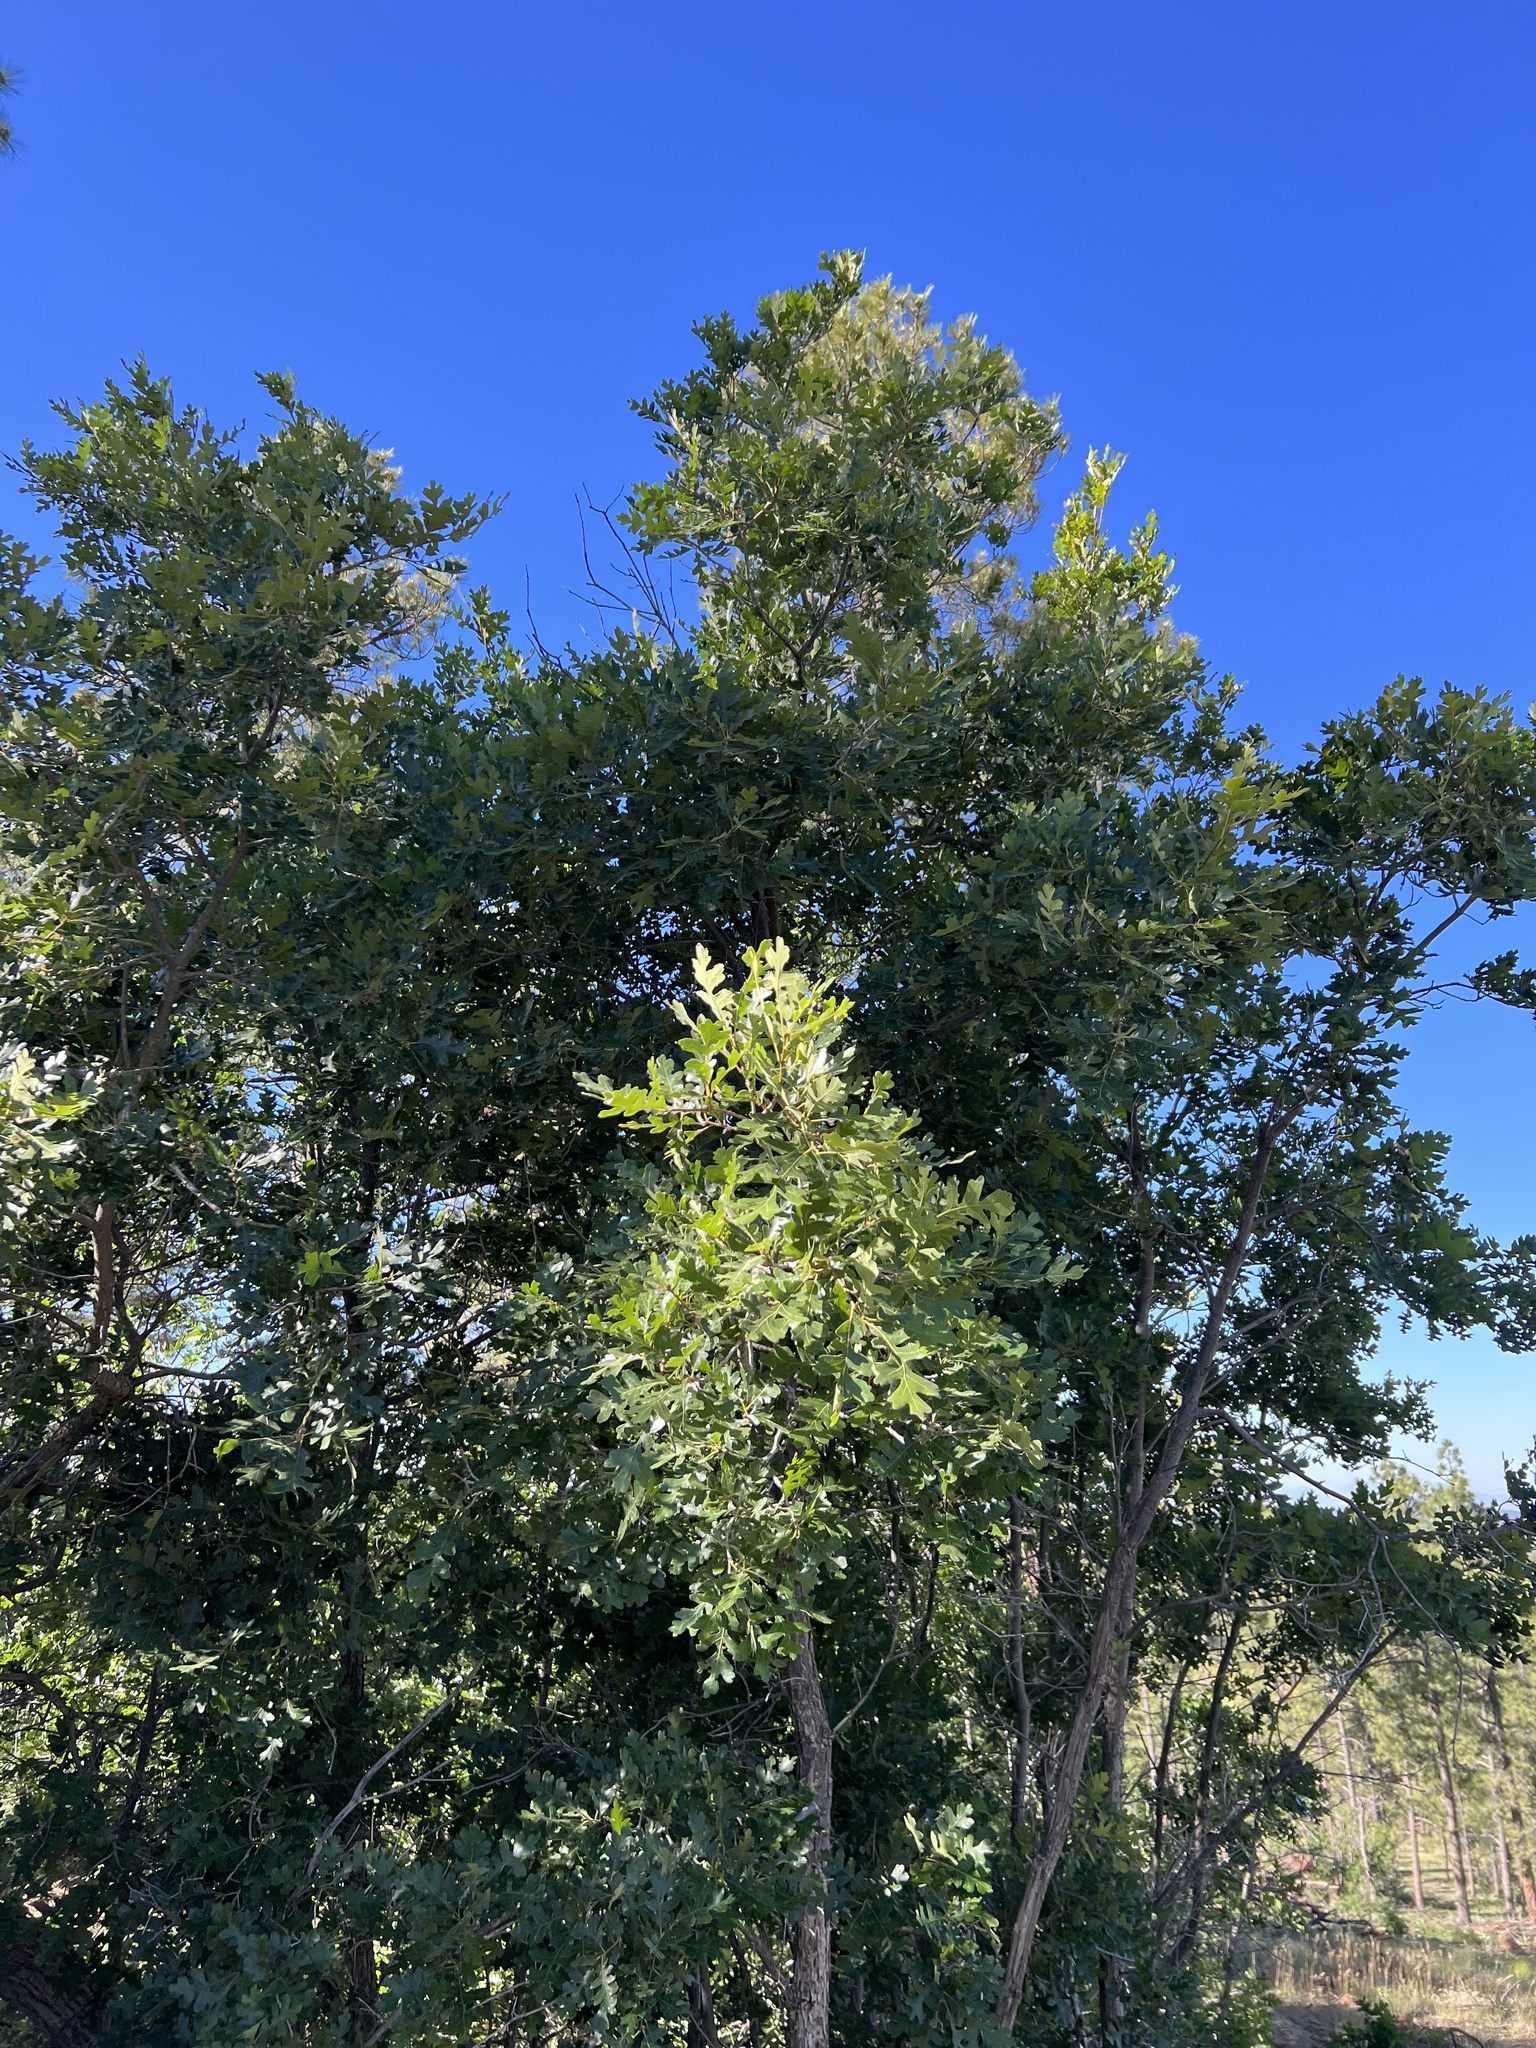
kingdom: Plantae
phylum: Tracheophyta
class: Magnoliopsida
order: Fagales
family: Fagaceae
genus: Quercus
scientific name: Quercus gambelii
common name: Gambel oak
